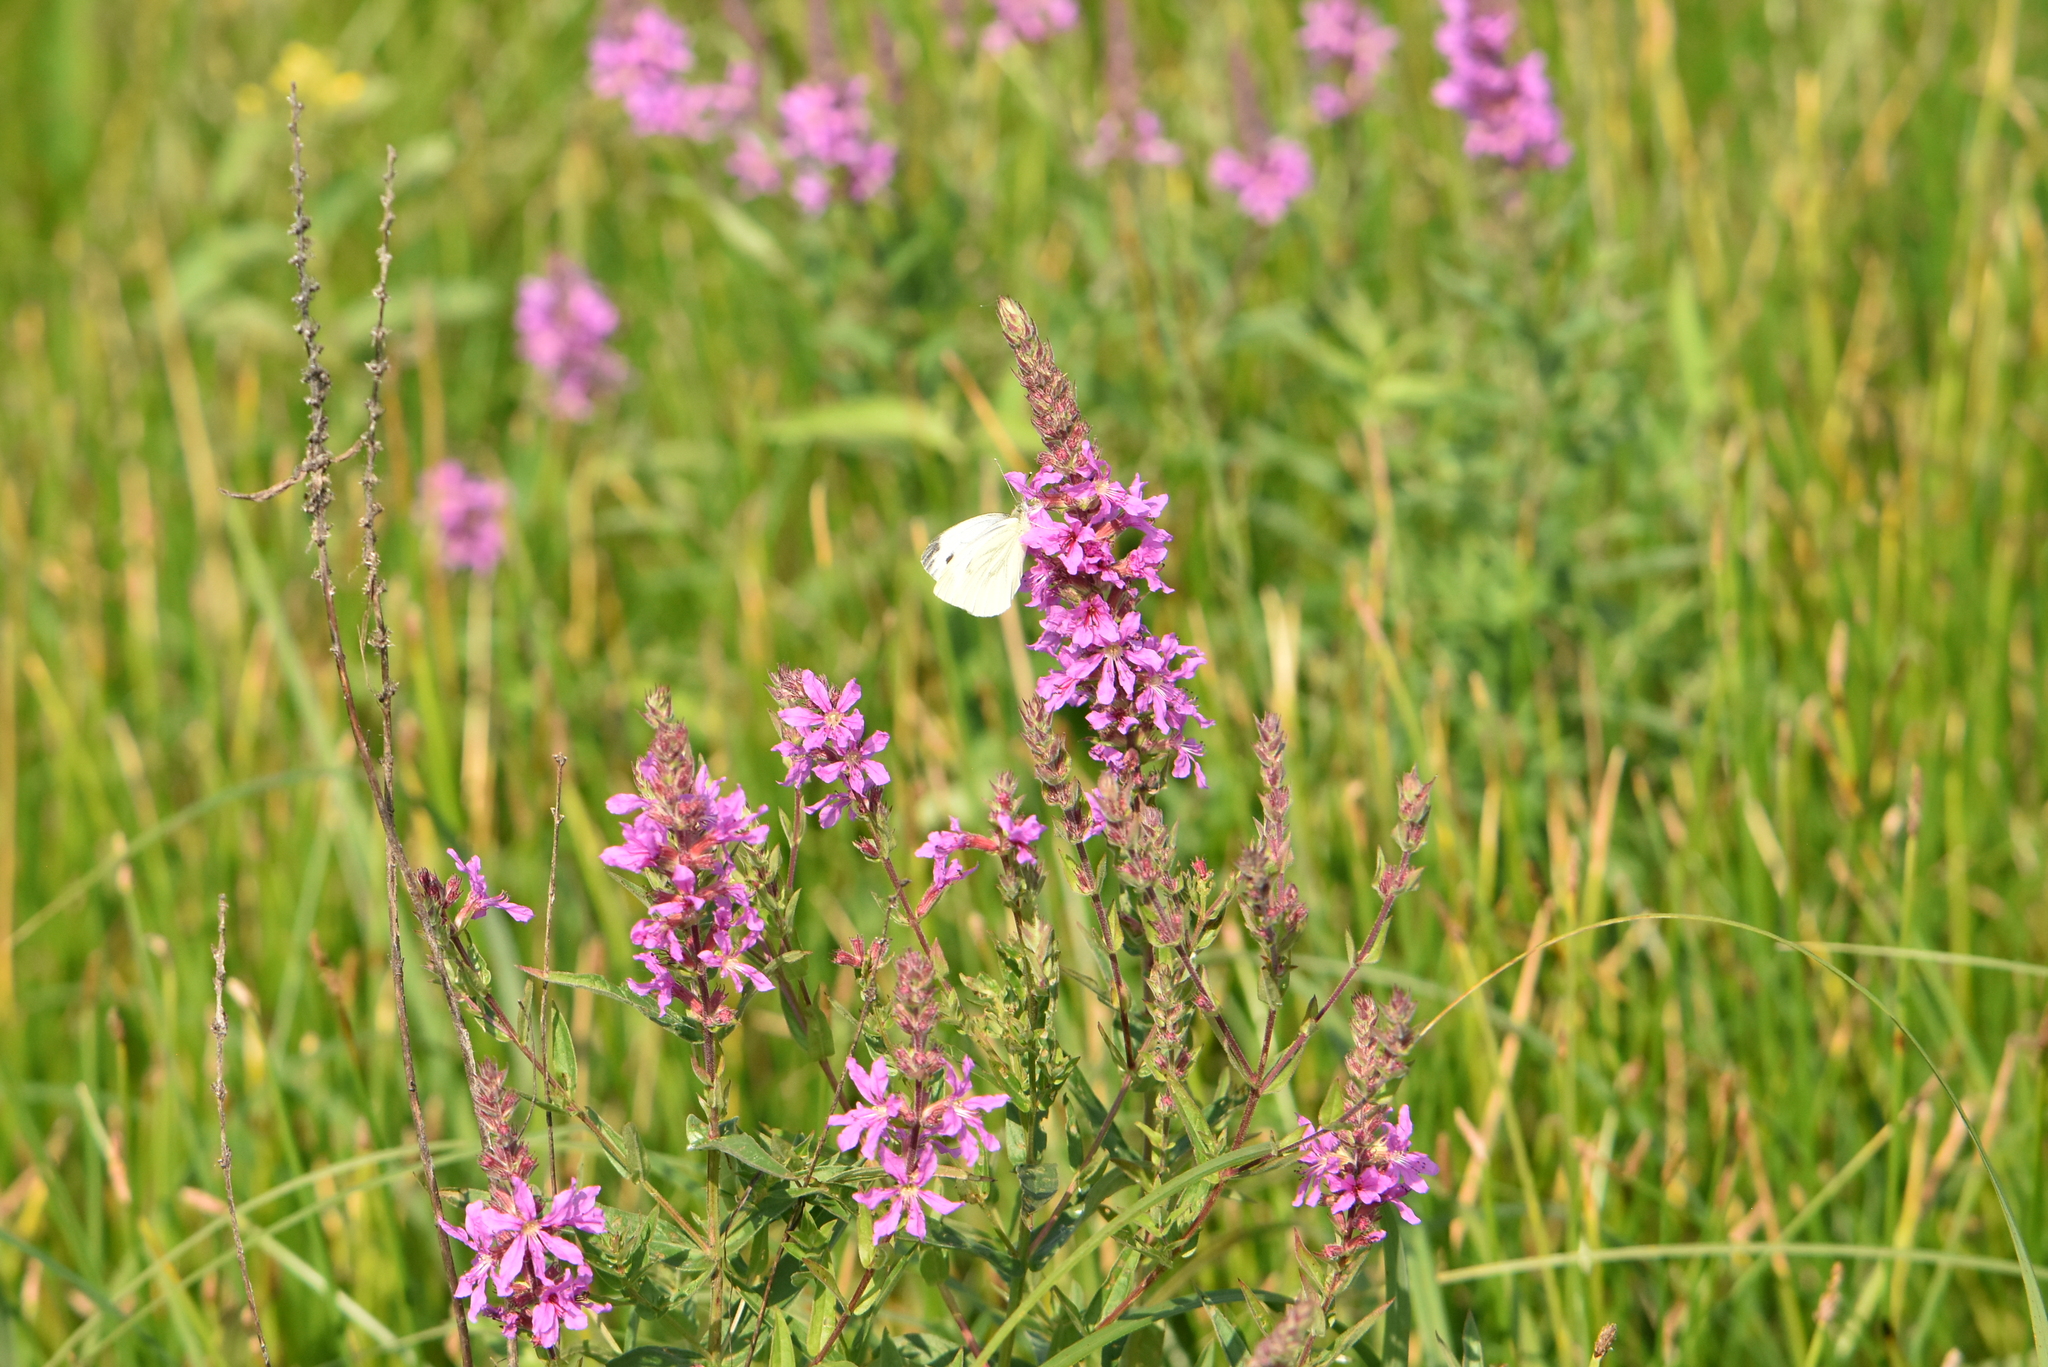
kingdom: Animalia
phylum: Arthropoda
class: Insecta
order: Lepidoptera
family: Pieridae
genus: Pieris
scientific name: Pieris napi
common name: Green-veined white
